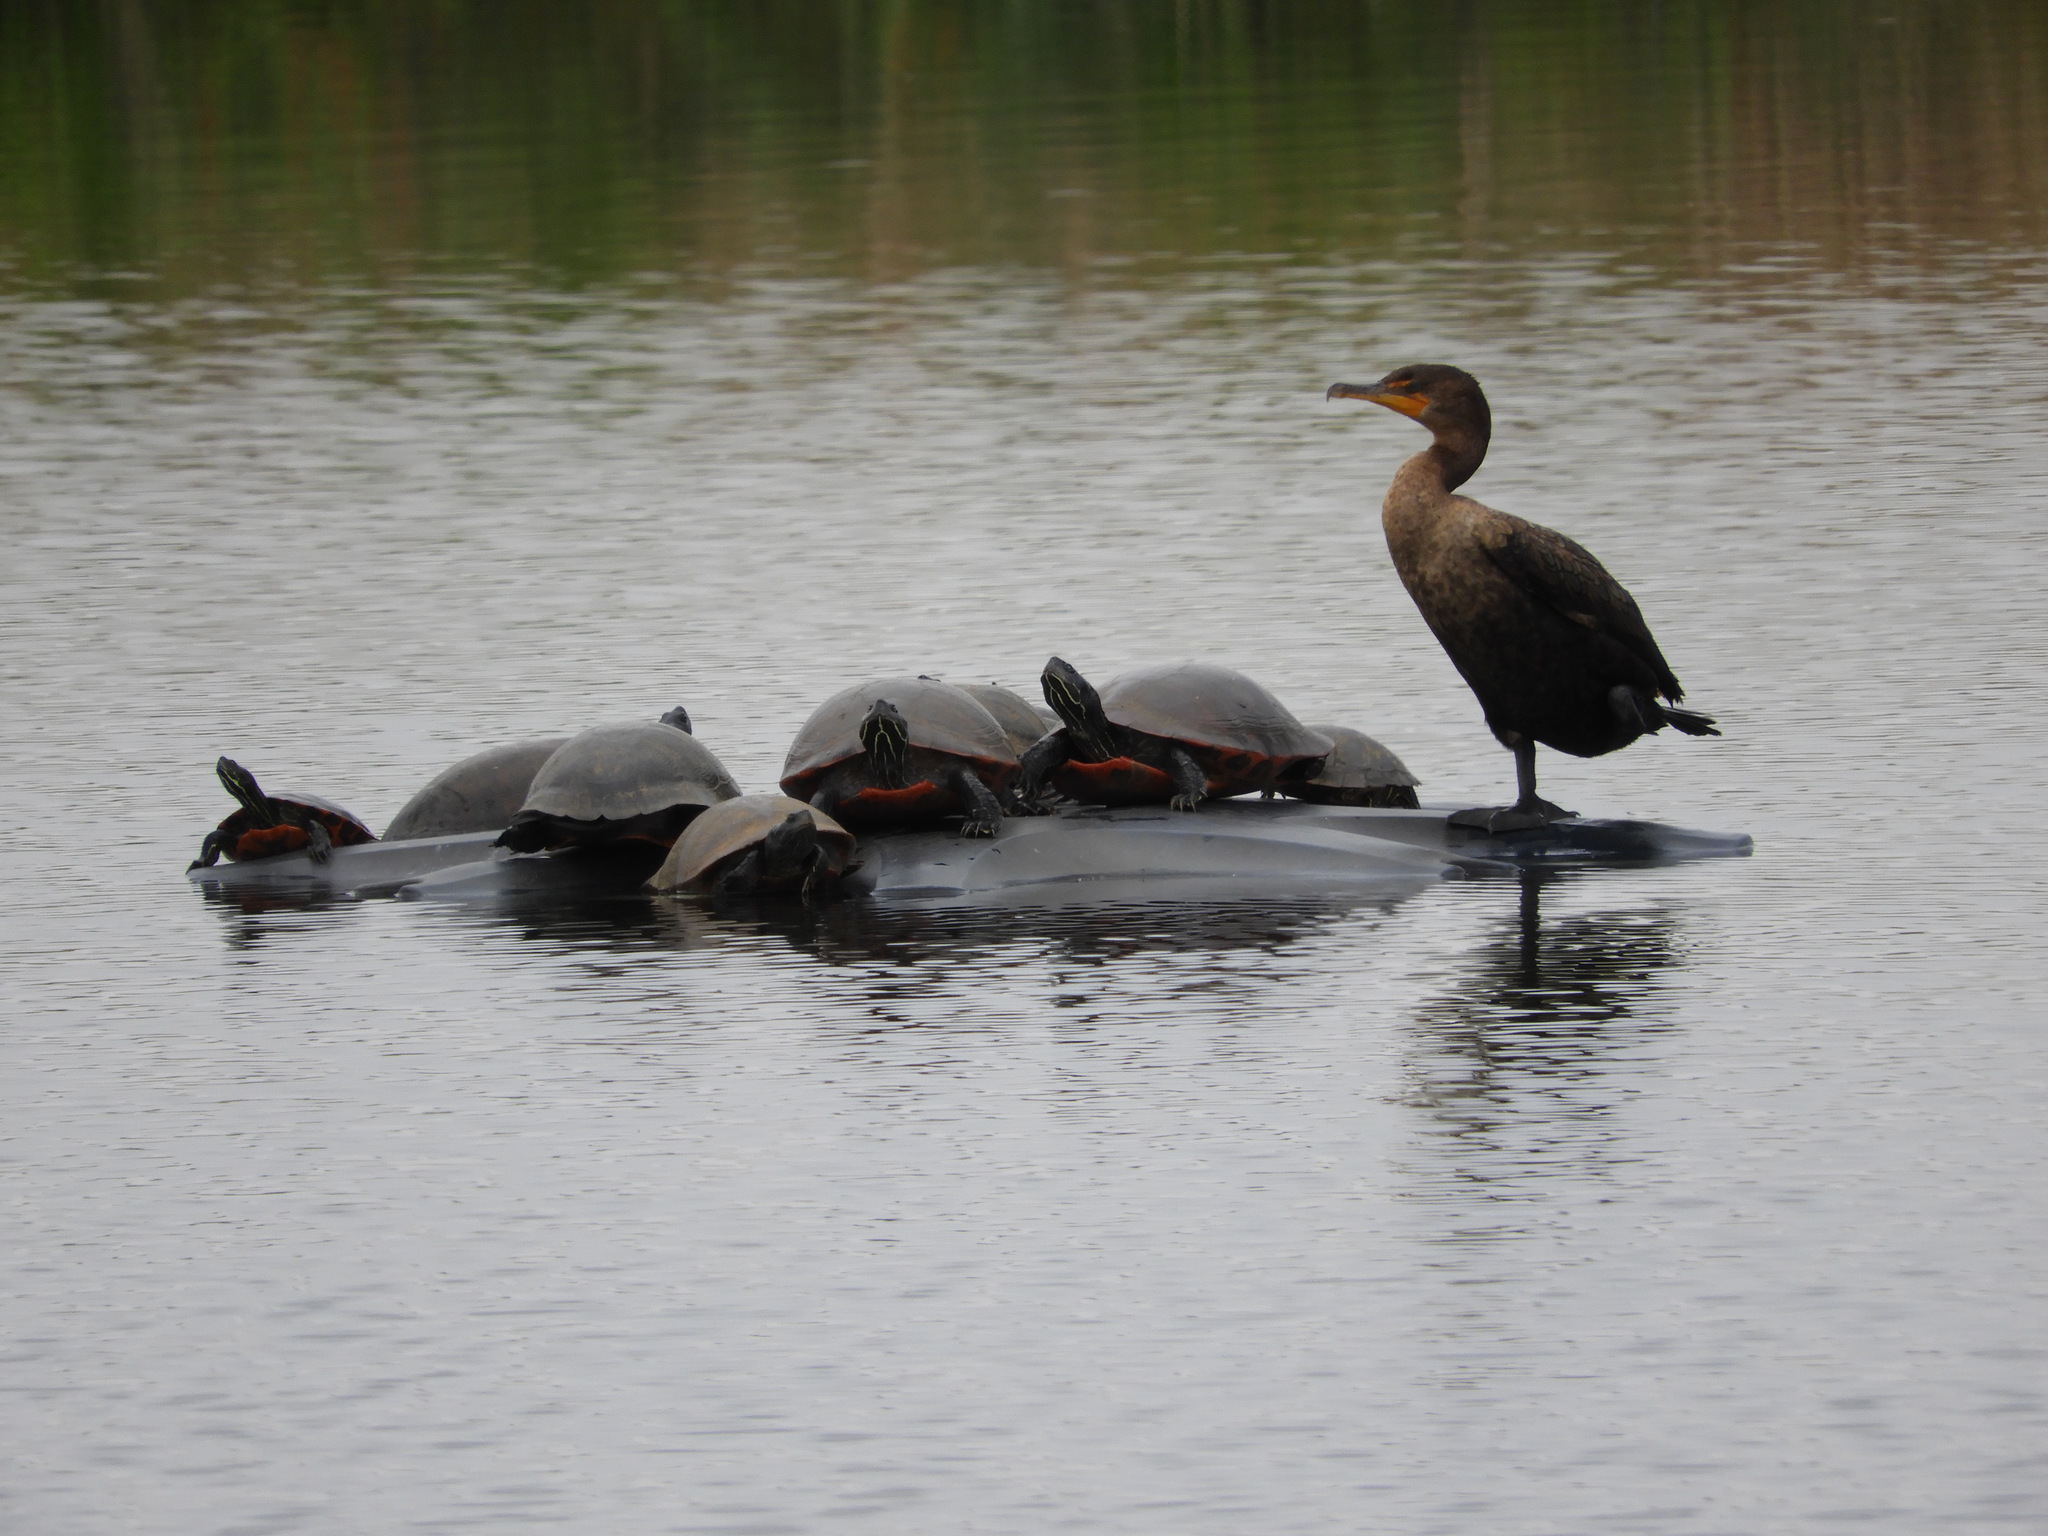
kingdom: Animalia
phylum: Chordata
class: Testudines
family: Emydidae
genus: Pseudemys
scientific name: Pseudemys rubriventris
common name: American red-bellied turtle
